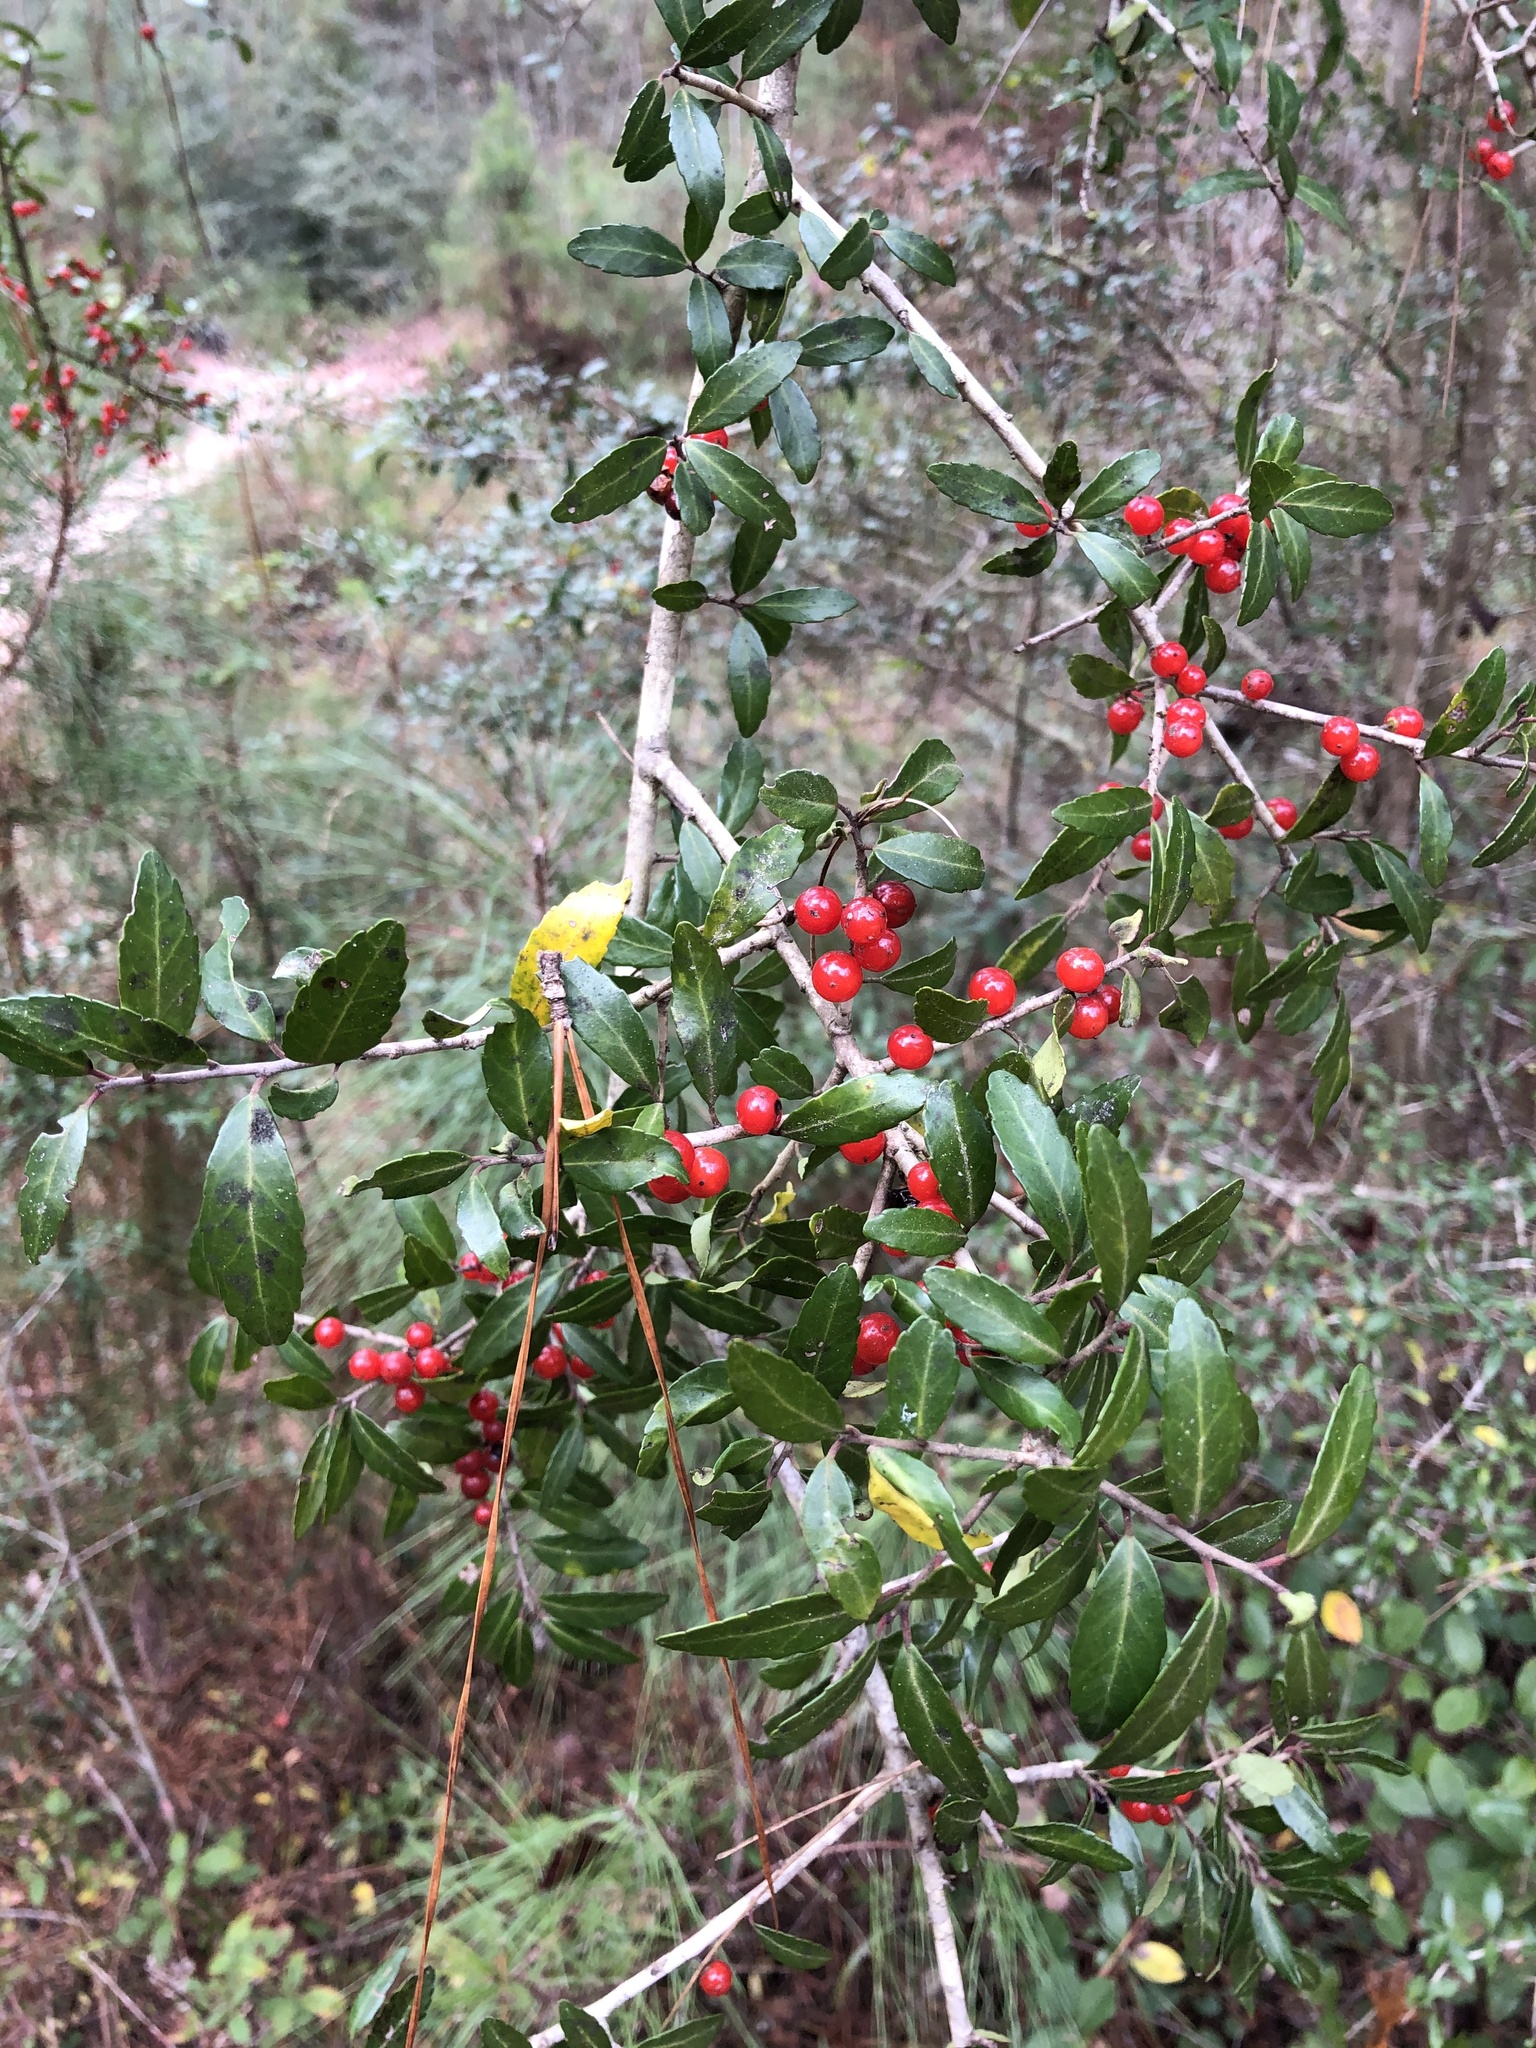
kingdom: Plantae
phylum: Tracheophyta
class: Magnoliopsida
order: Aquifoliales
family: Aquifoliaceae
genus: Ilex
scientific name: Ilex vomitoria
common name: Yaupon holly
